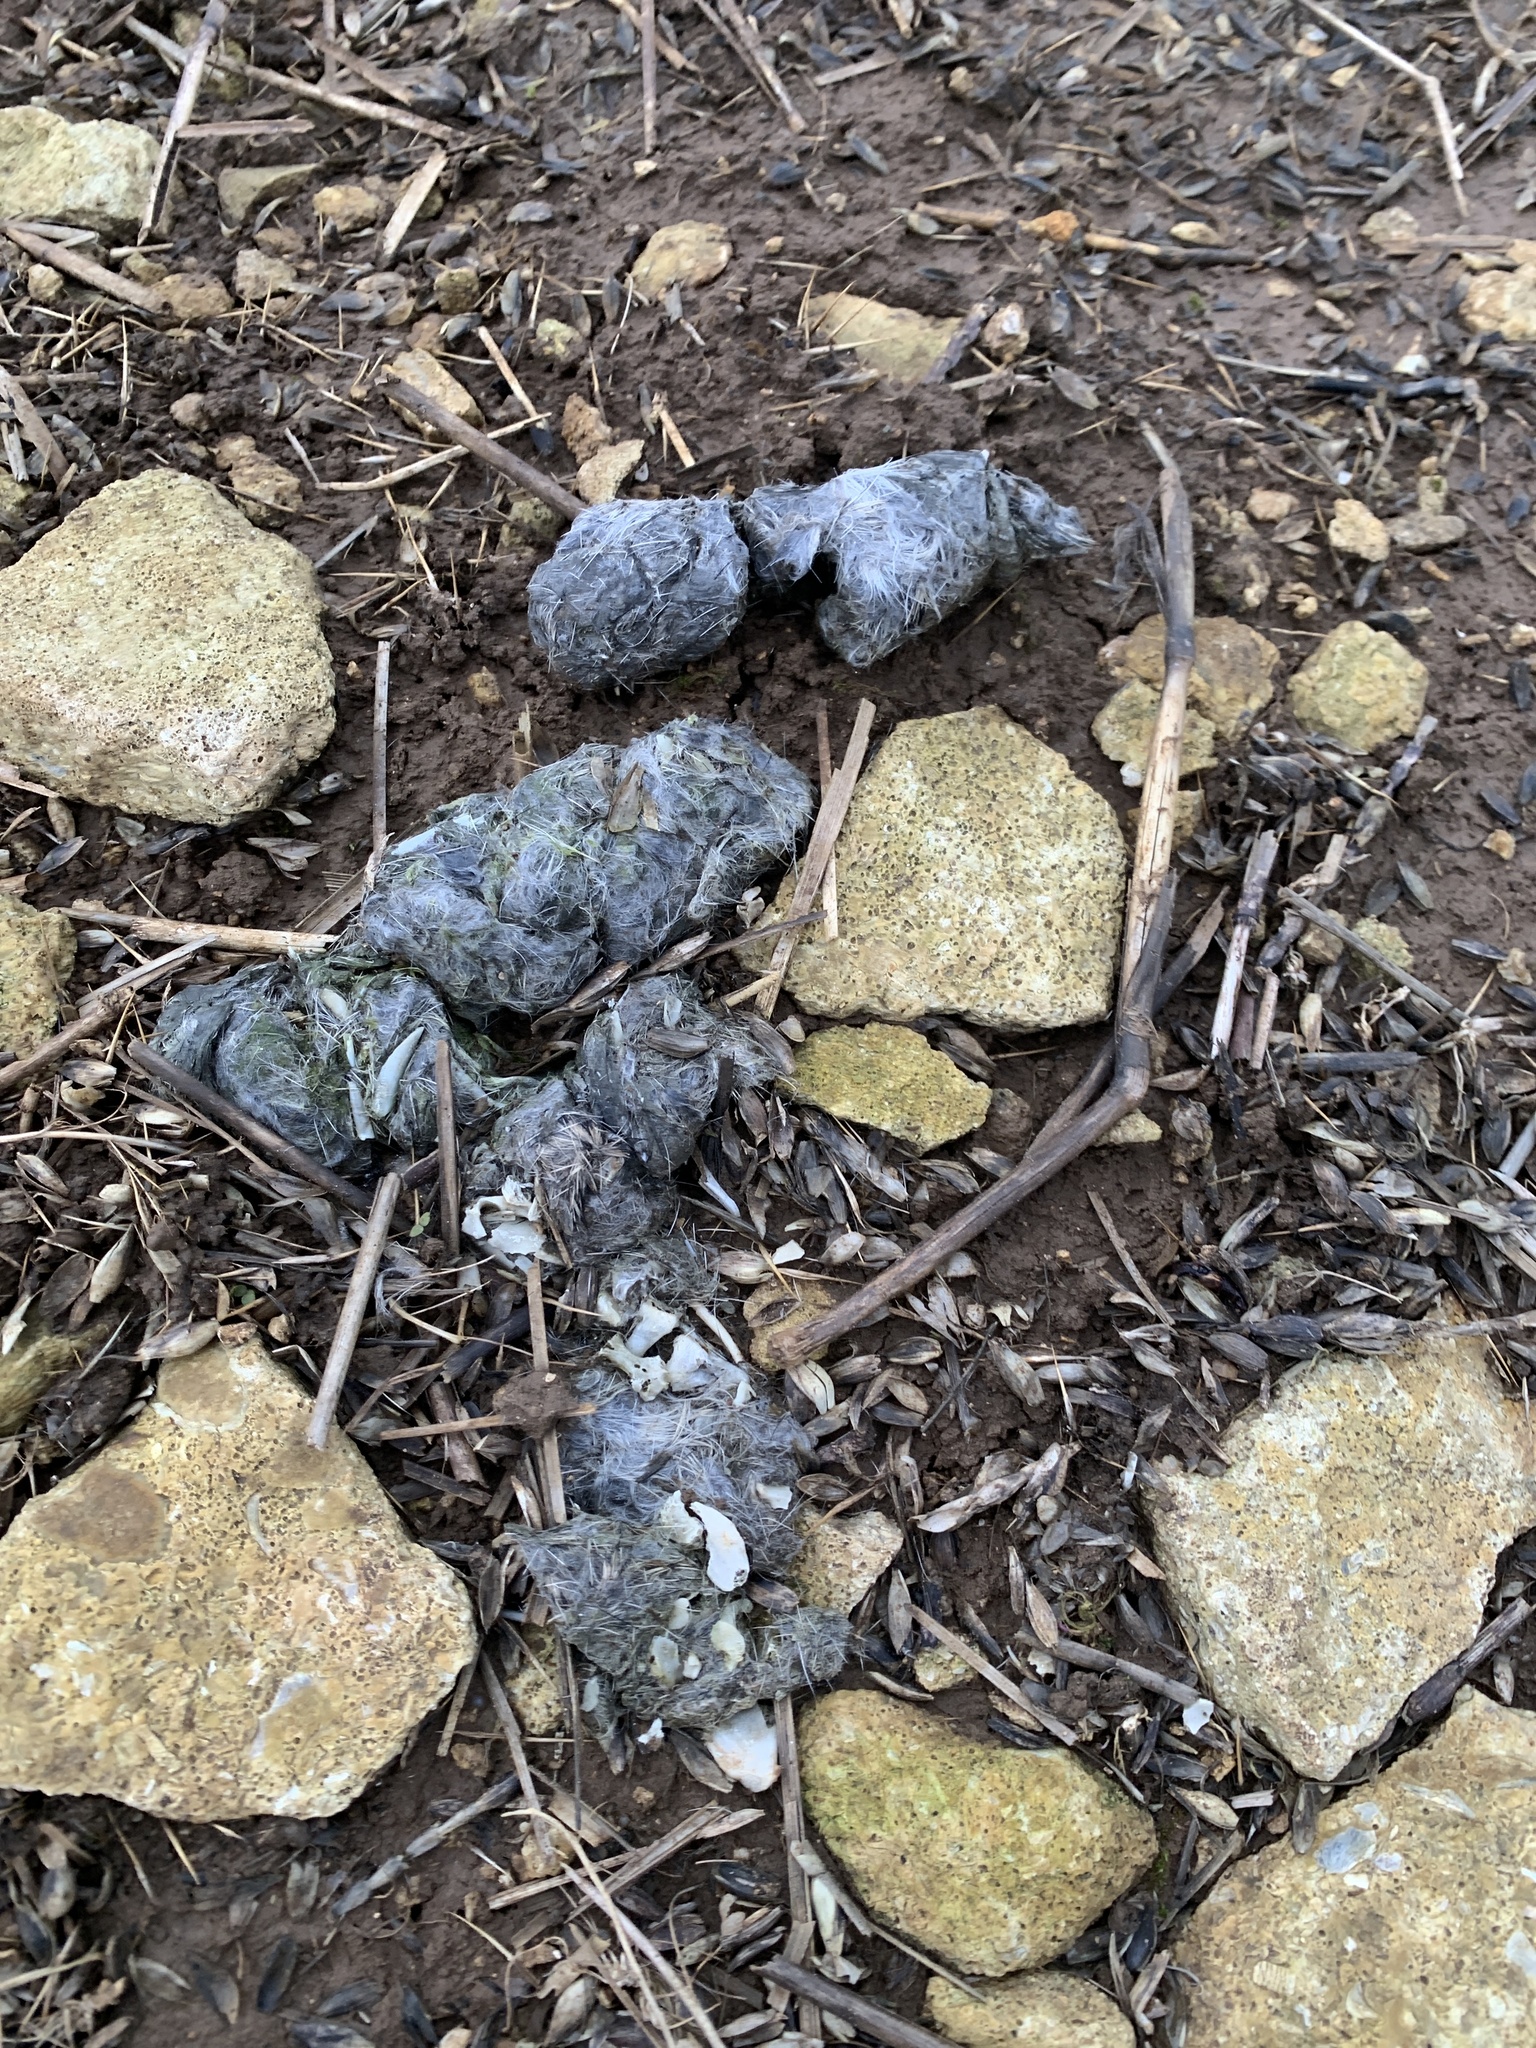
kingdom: Animalia
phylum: Chordata
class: Mammalia
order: Carnivora
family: Canidae
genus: Vulpes
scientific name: Vulpes vulpes
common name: Red fox
